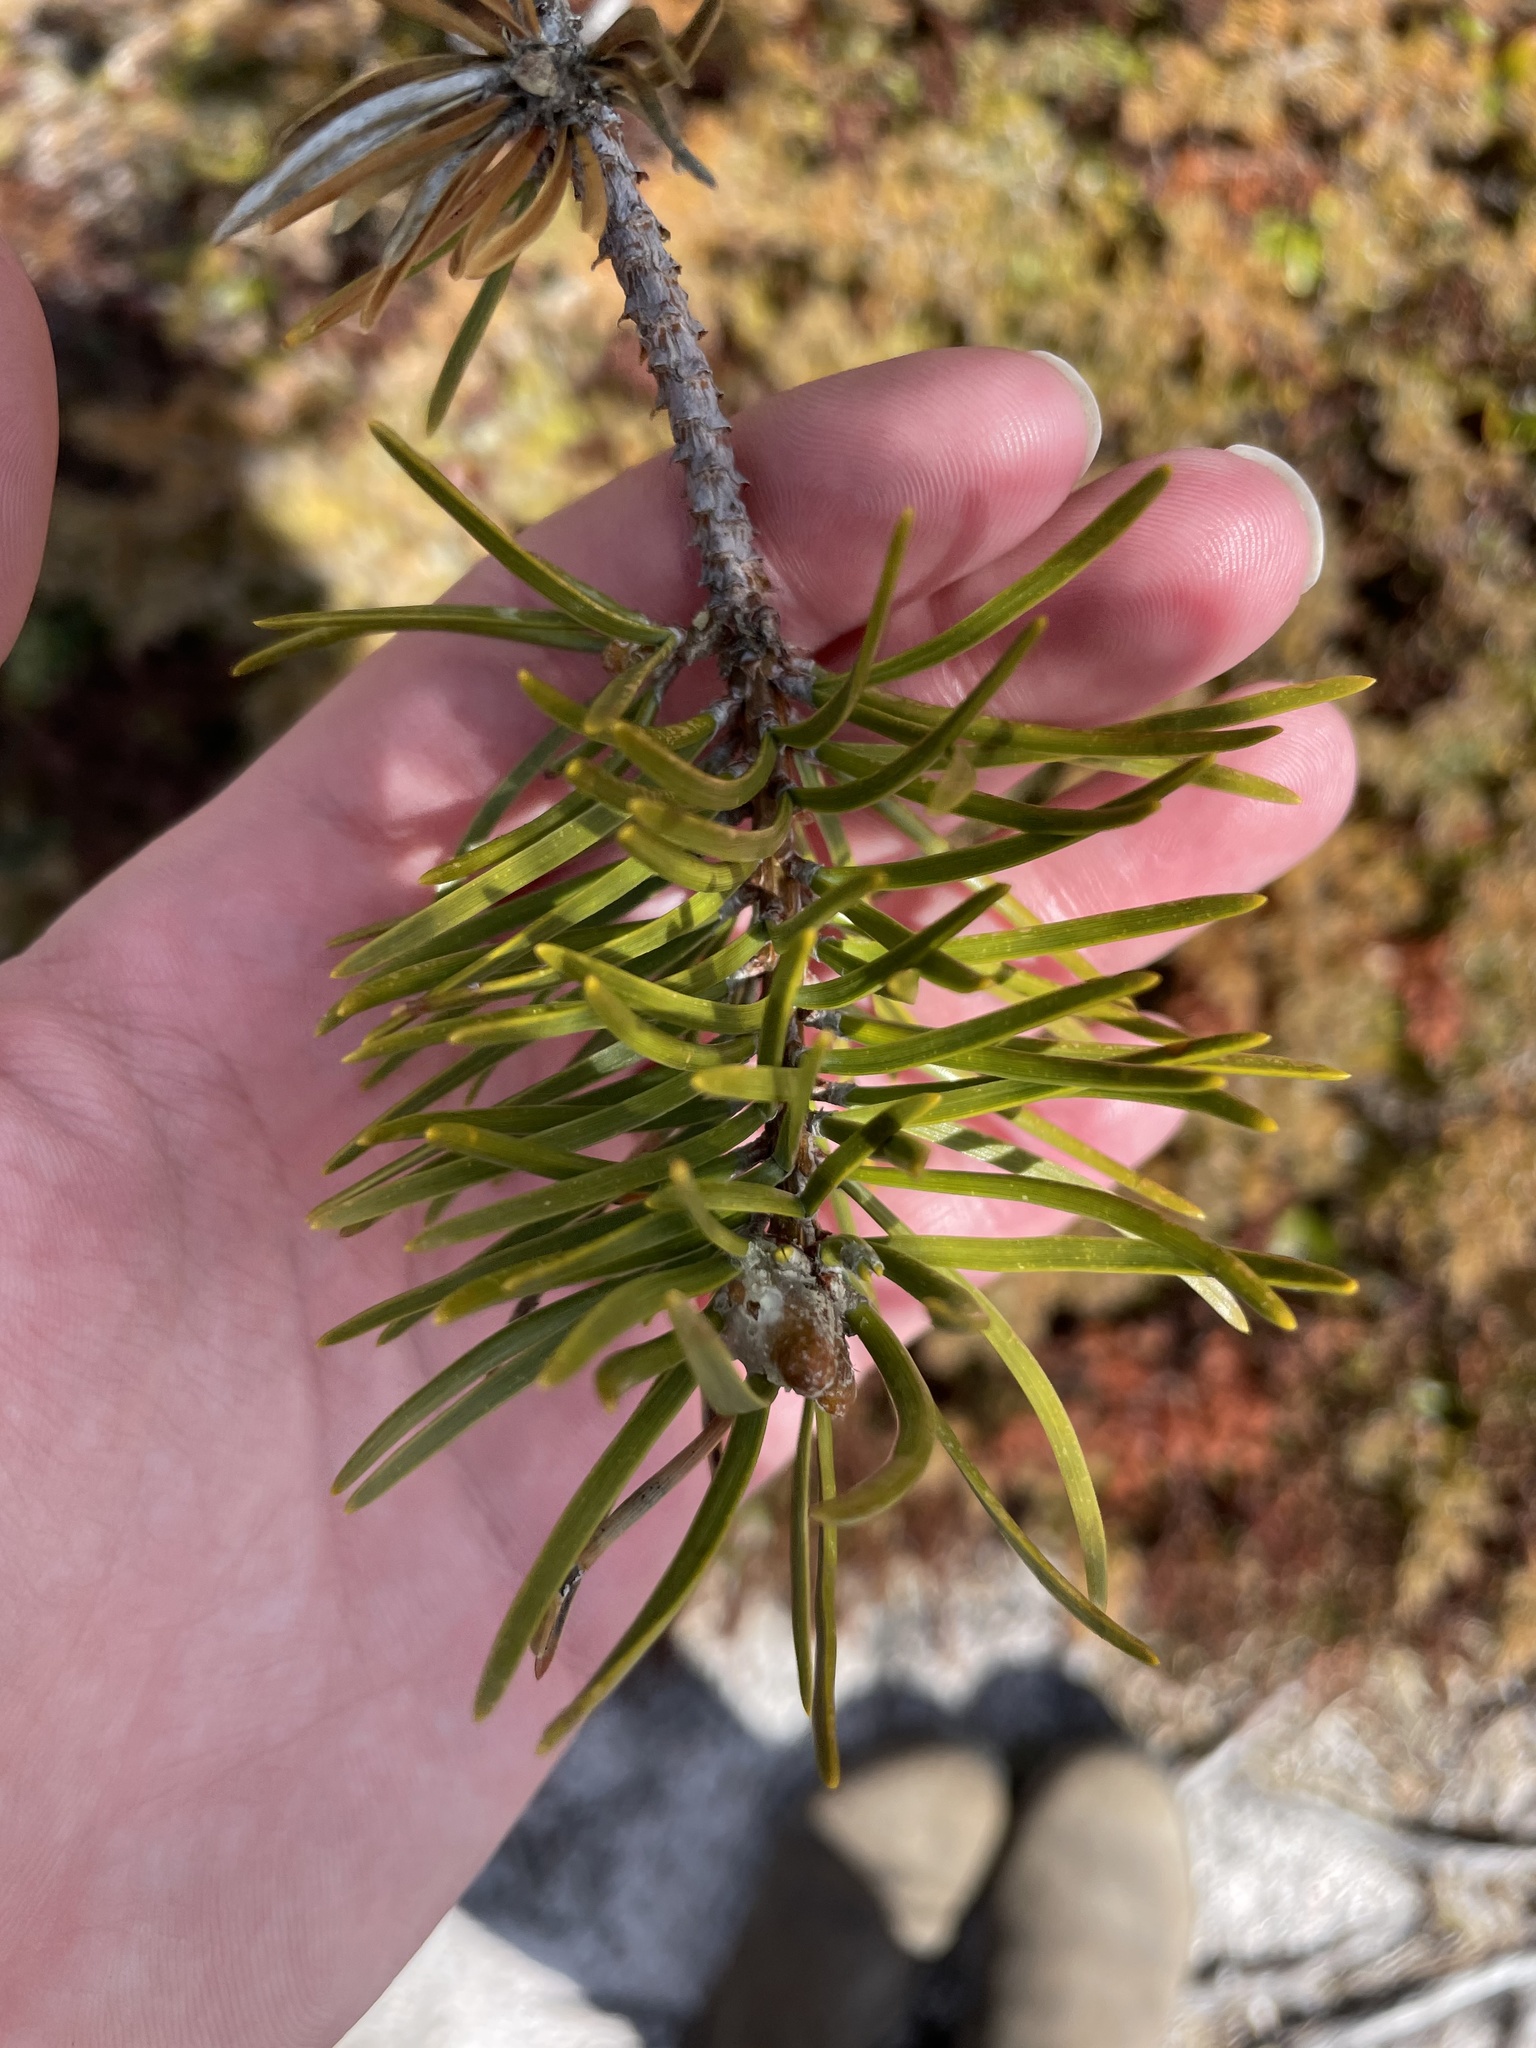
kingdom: Plantae
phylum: Tracheophyta
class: Pinopsida
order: Pinales
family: Pinaceae
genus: Pinus
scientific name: Pinus banksiana
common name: Jack pine
